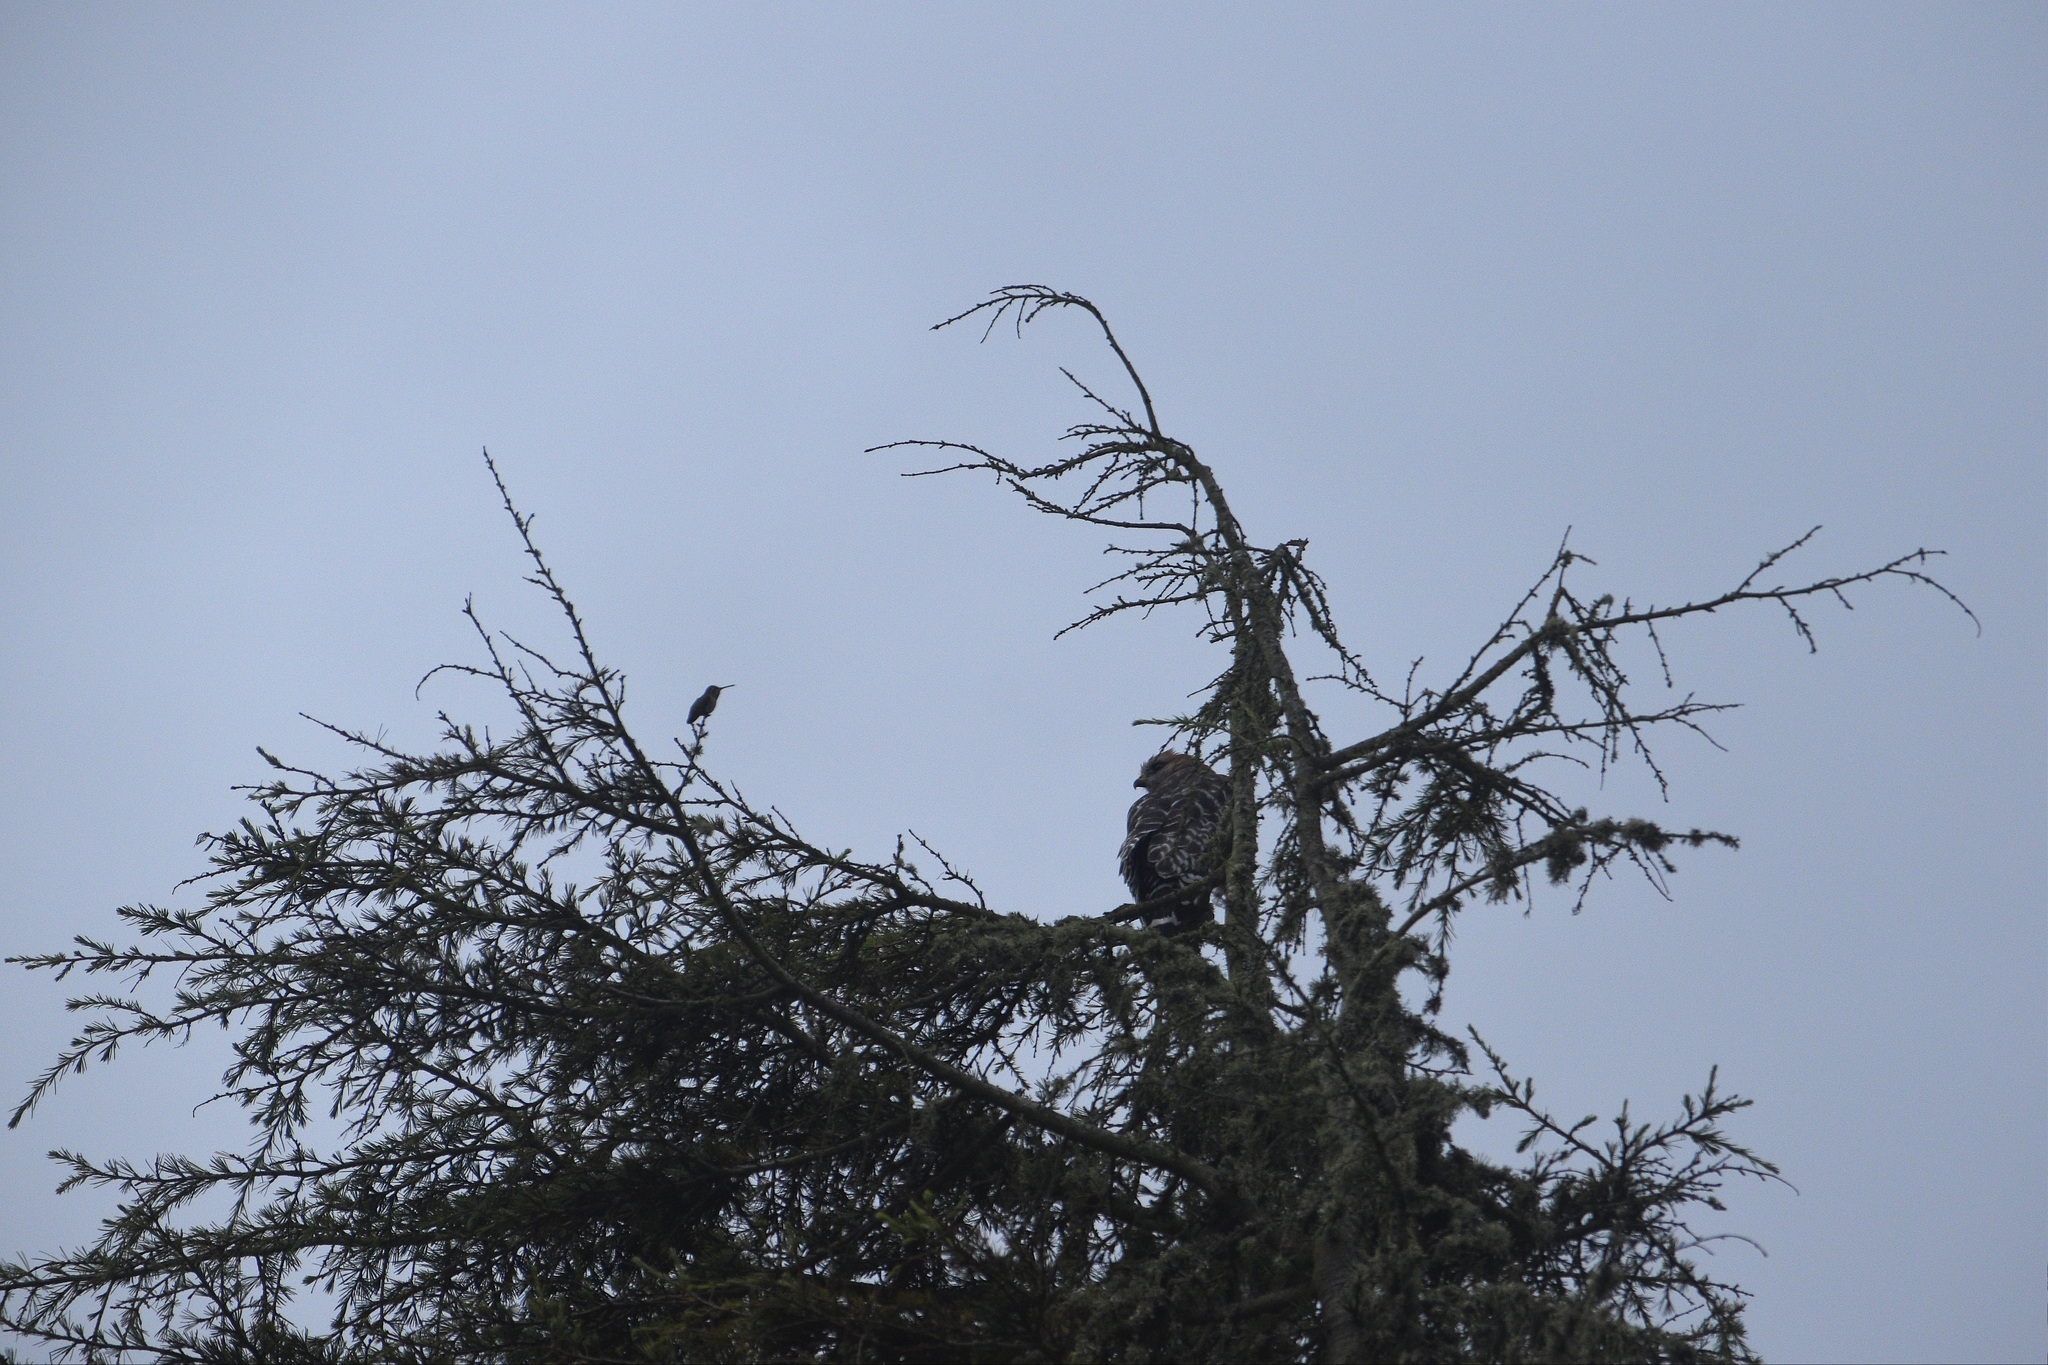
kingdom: Animalia
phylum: Chordata
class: Aves
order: Accipitriformes
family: Accipitridae
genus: Buteo
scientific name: Buteo lineatus
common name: Red-shouldered hawk
